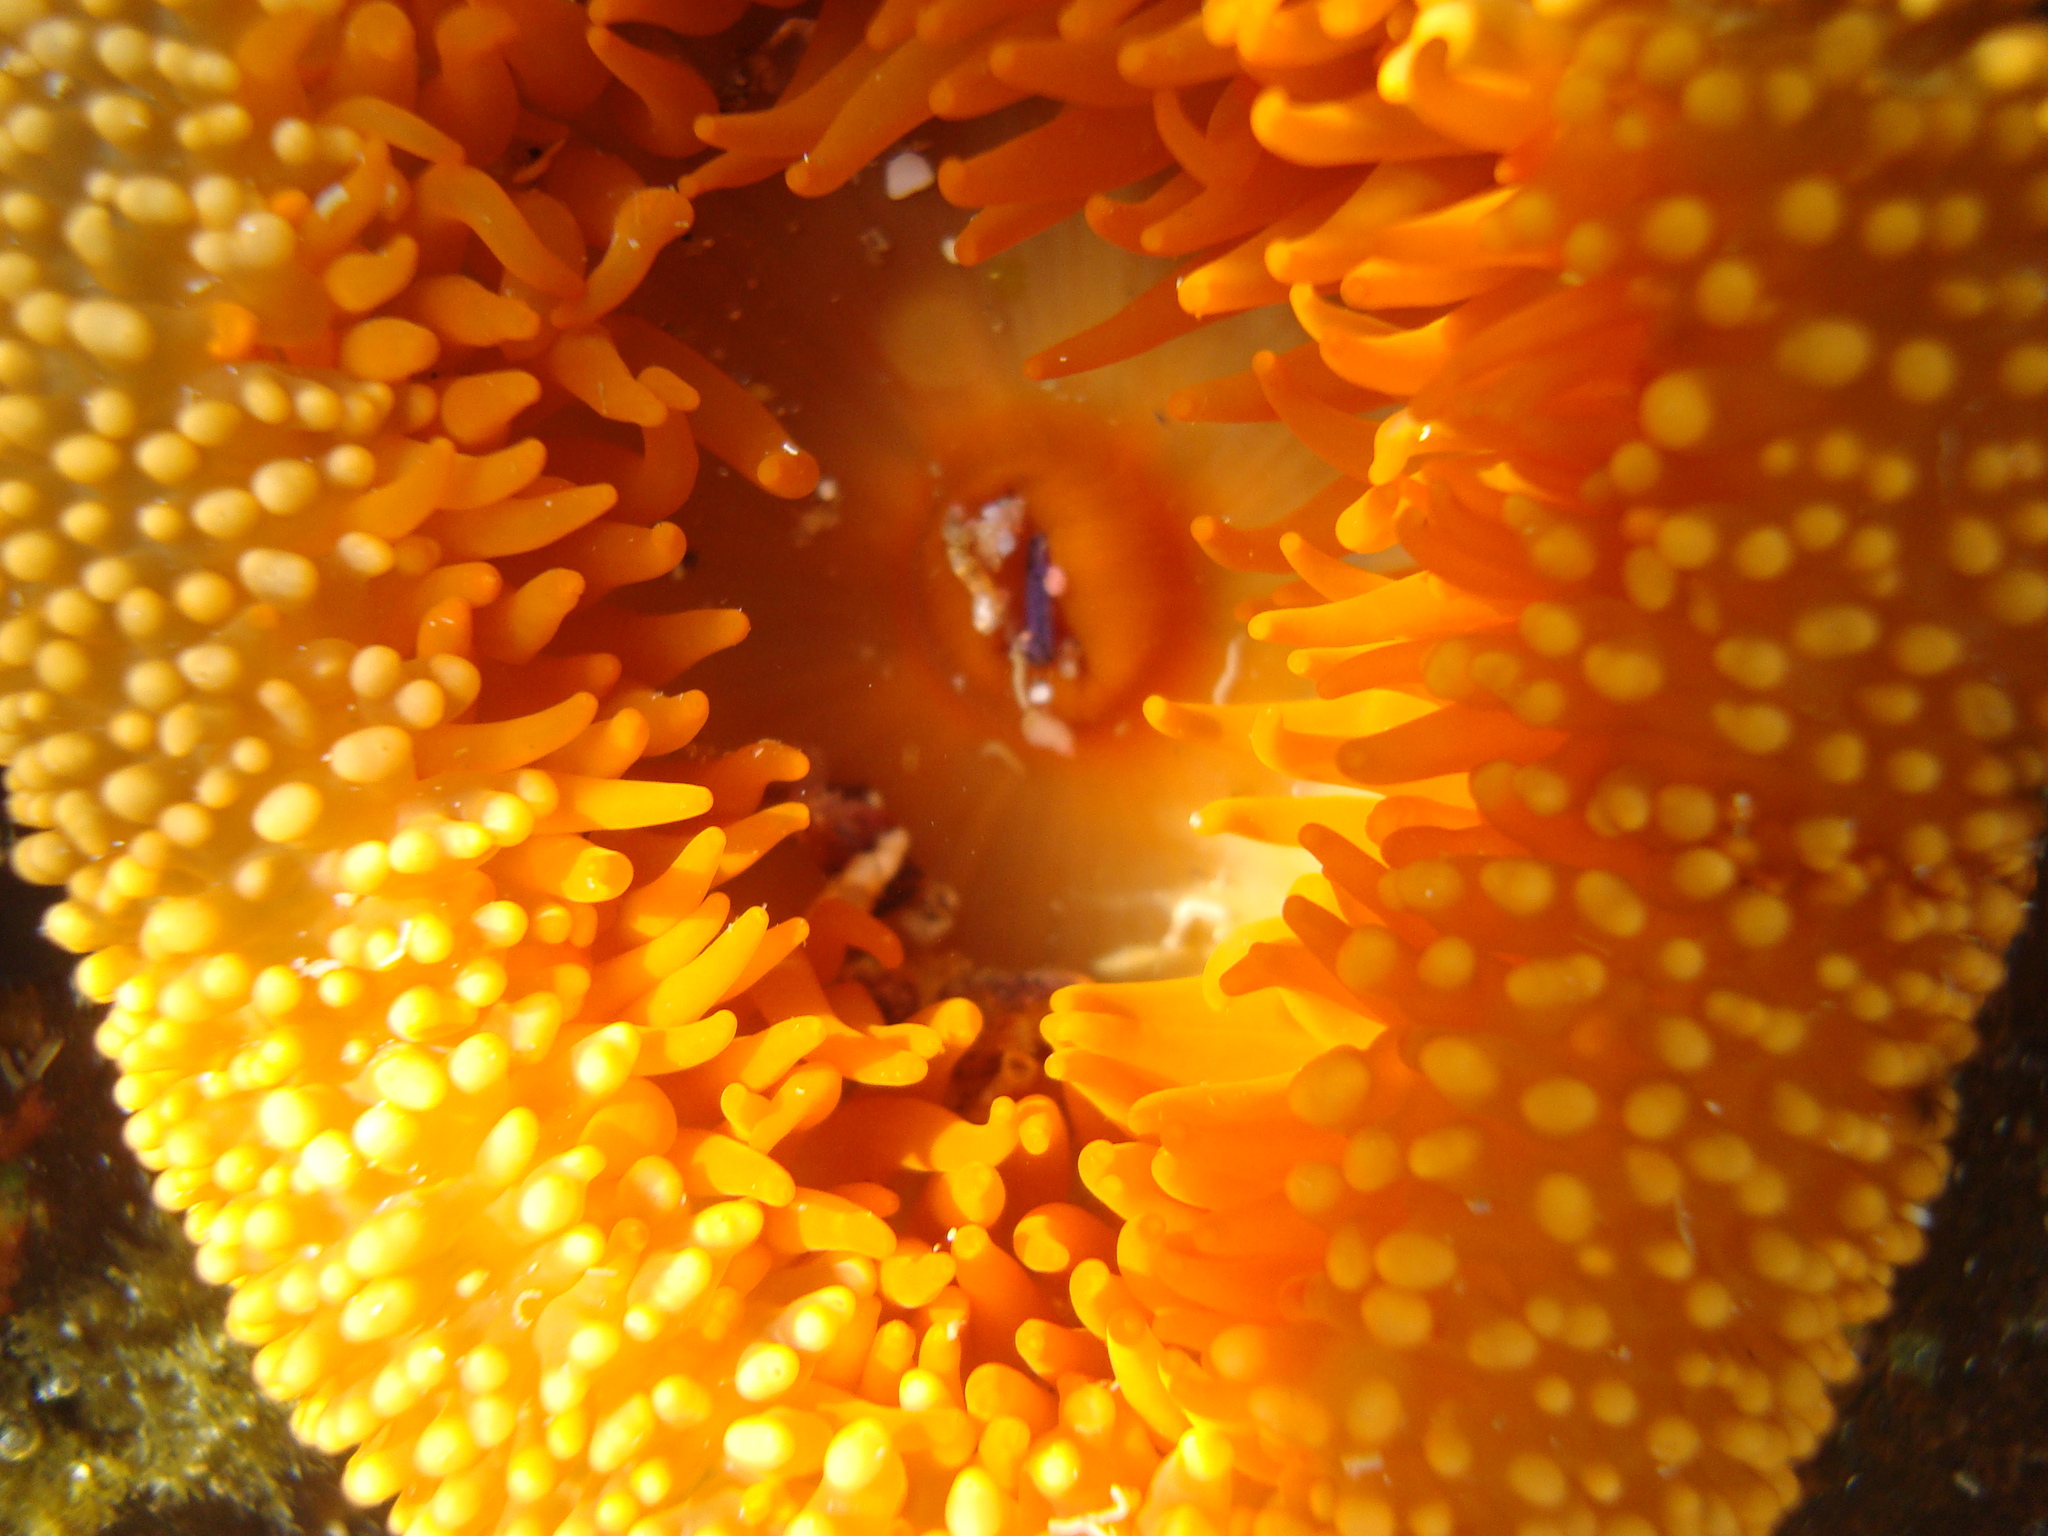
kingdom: Animalia
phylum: Cnidaria
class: Anthozoa
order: Actiniaria
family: Actiniidae
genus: Phymanthea
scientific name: Phymanthea pluvia
